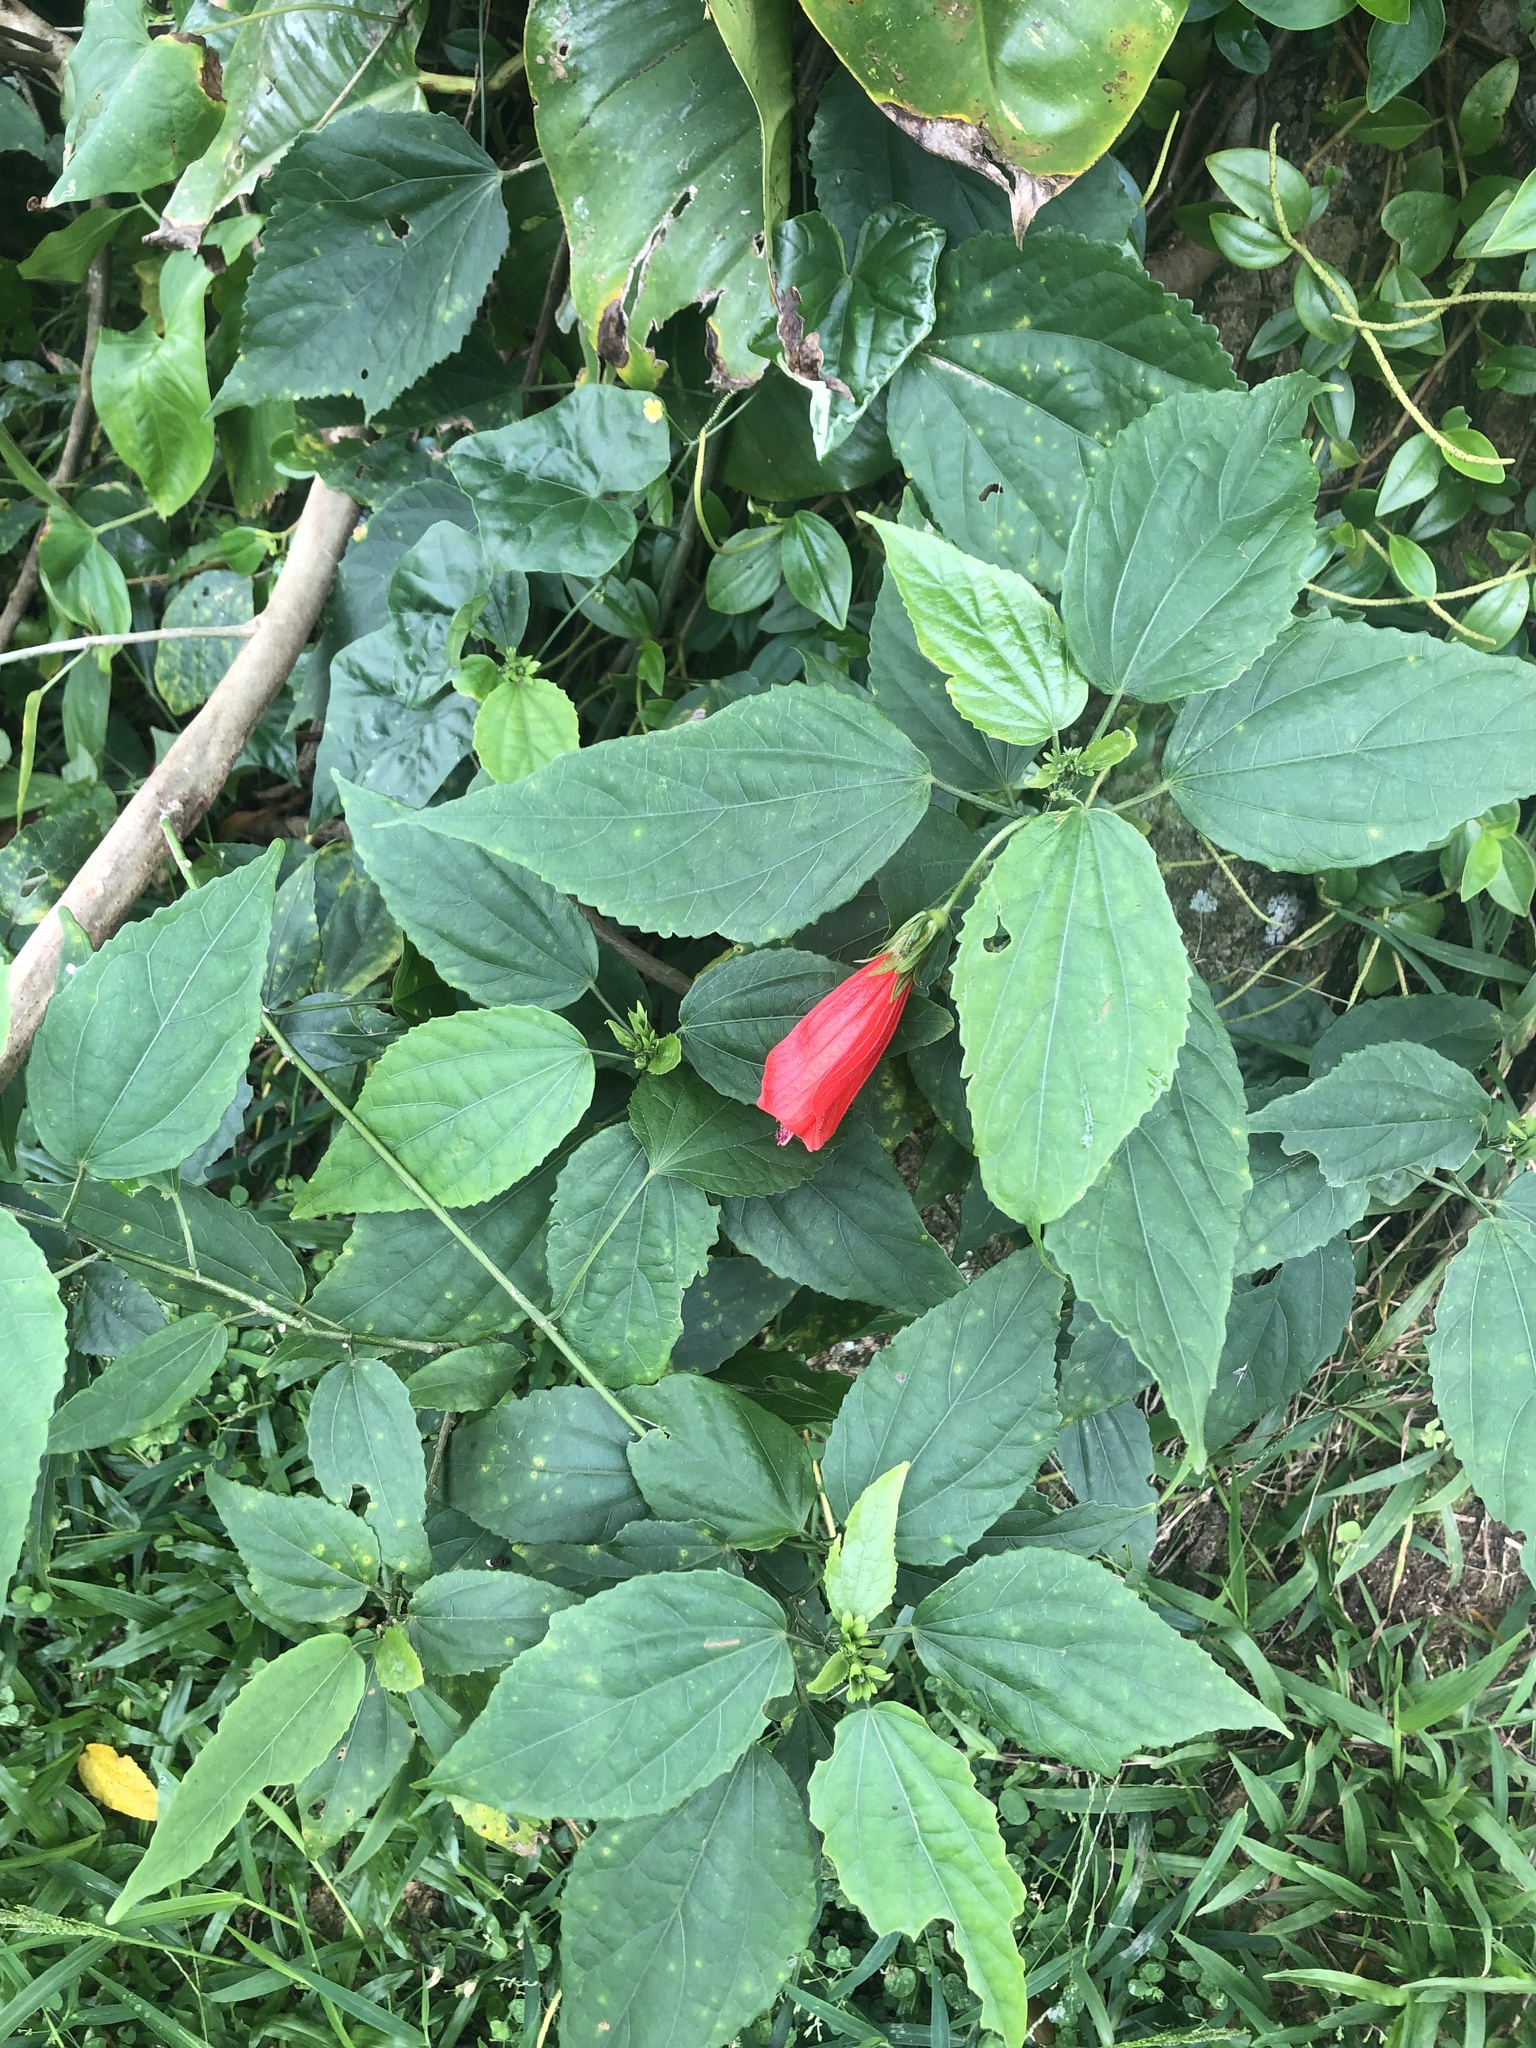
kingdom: Plantae
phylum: Tracheophyta
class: Magnoliopsida
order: Malvales
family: Malvaceae
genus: Malvaviscus
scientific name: Malvaviscus penduliflorus
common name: Mazapan
